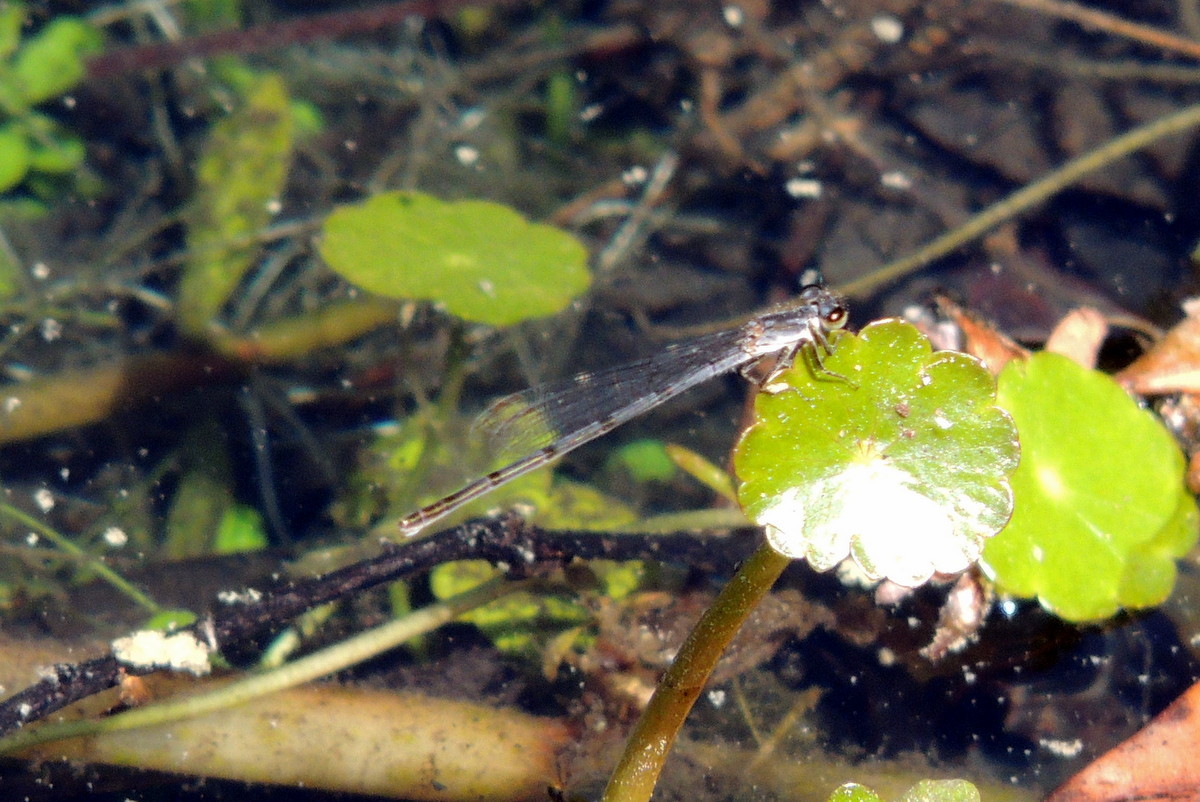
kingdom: Animalia
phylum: Arthropoda
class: Insecta
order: Odonata
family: Coenagrionidae
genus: Ischnura
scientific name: Ischnura posita
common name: Fragile forktail
